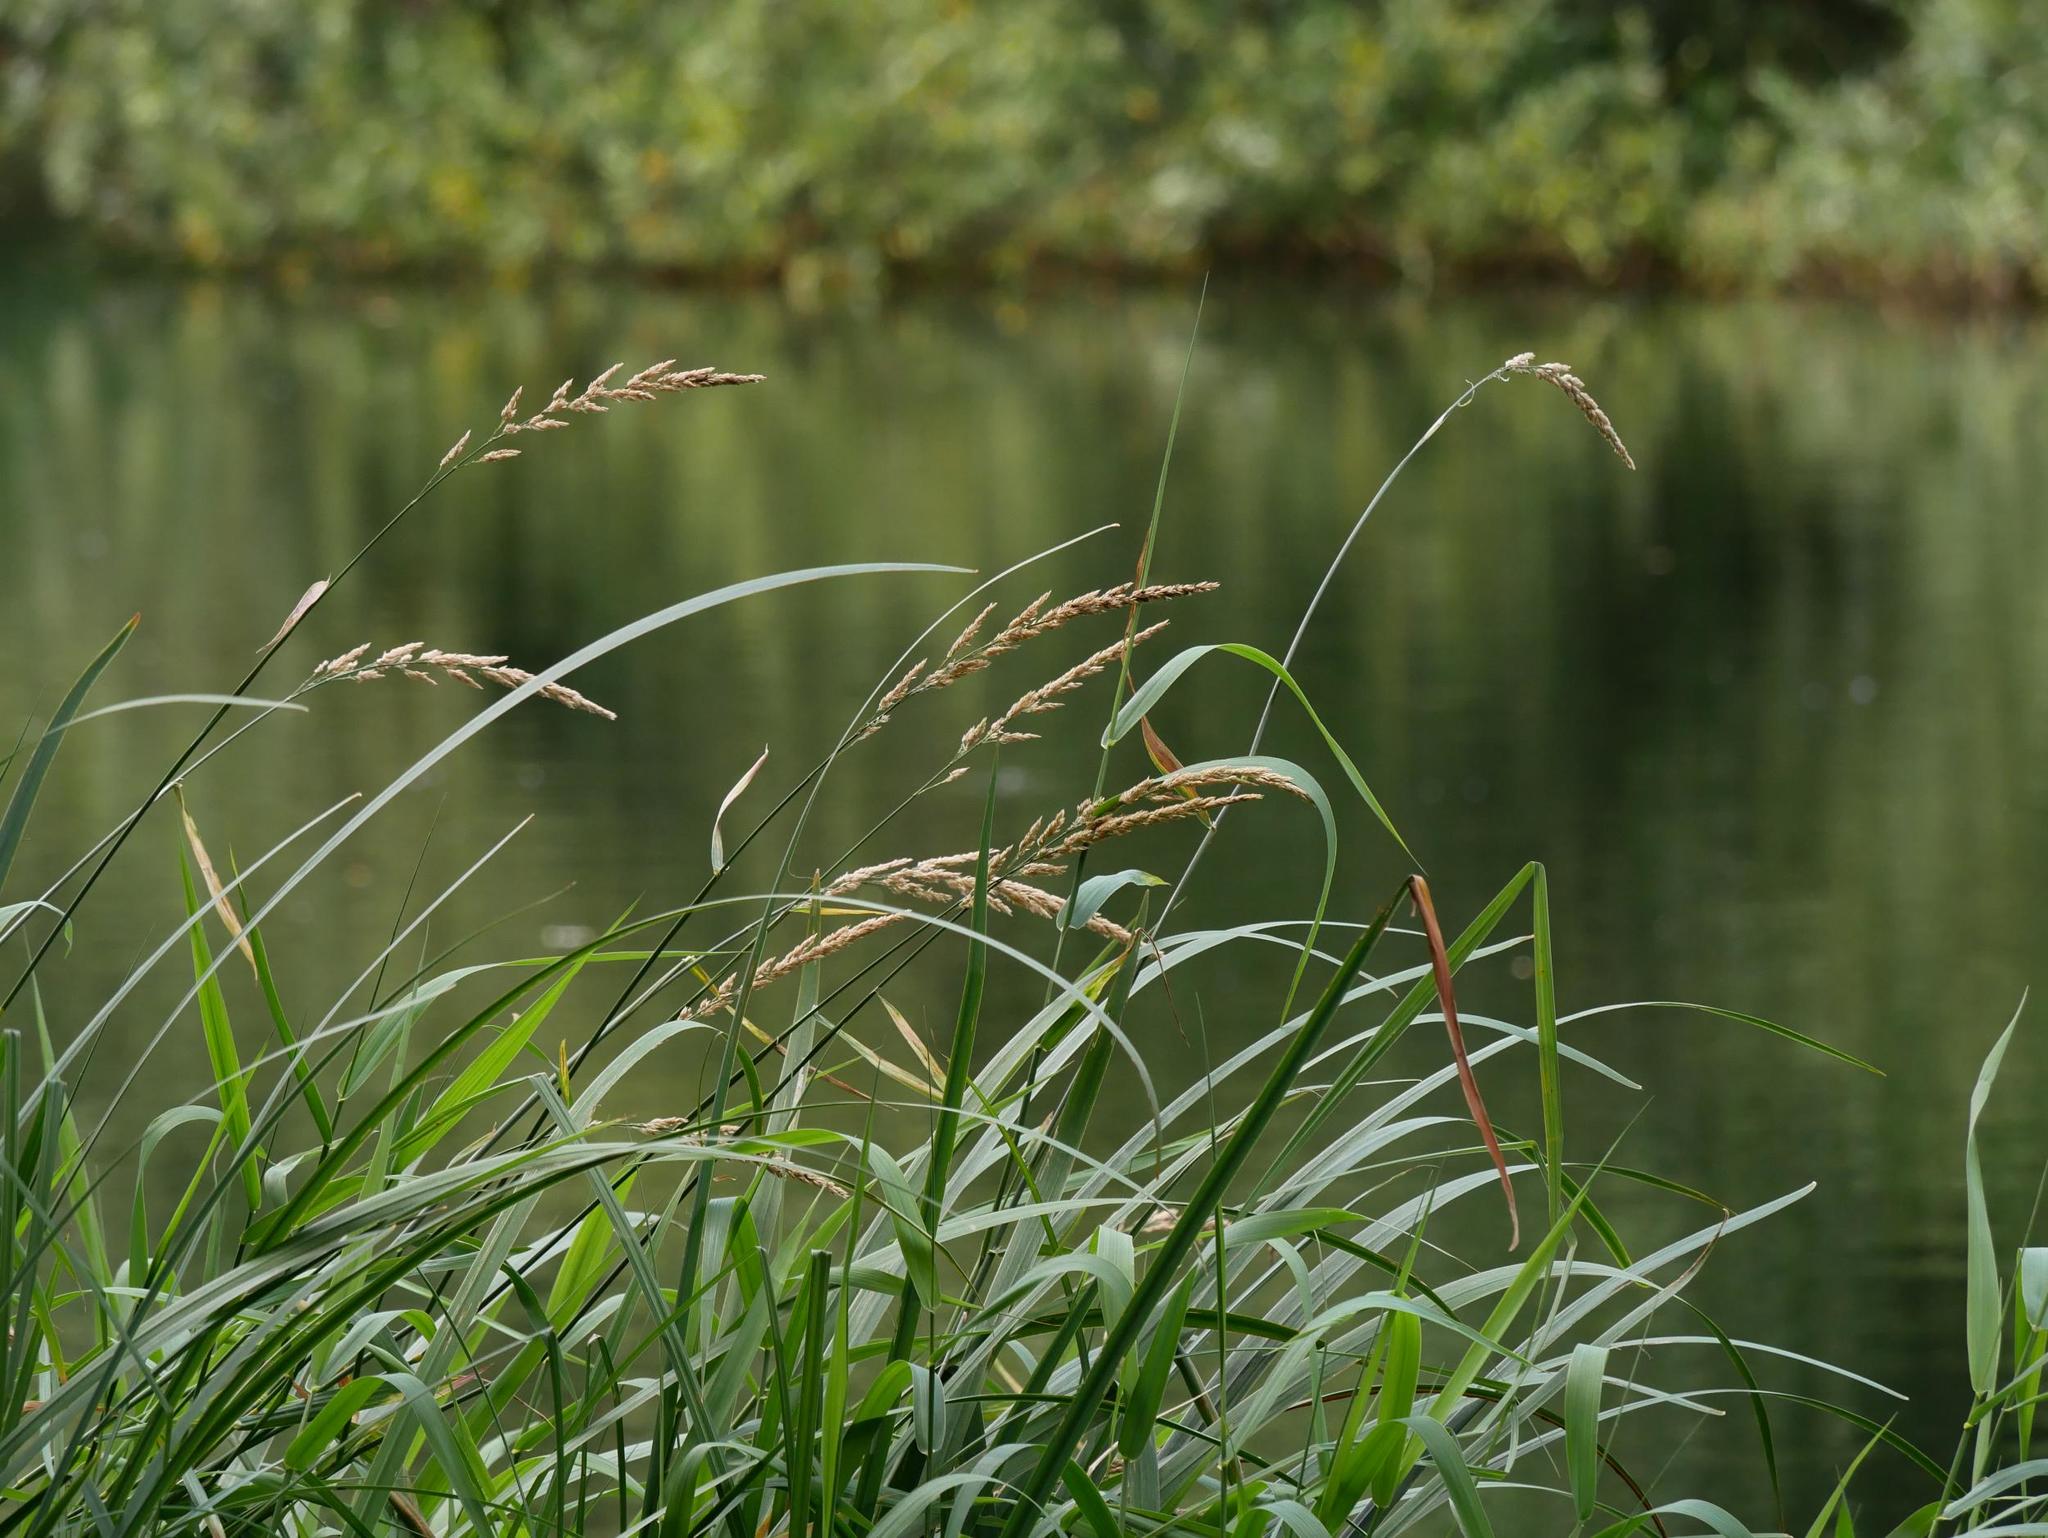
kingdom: Plantae
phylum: Tracheophyta
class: Liliopsida
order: Poales
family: Poaceae
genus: Phalaris
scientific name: Phalaris arundinacea
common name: Reed canary-grass
